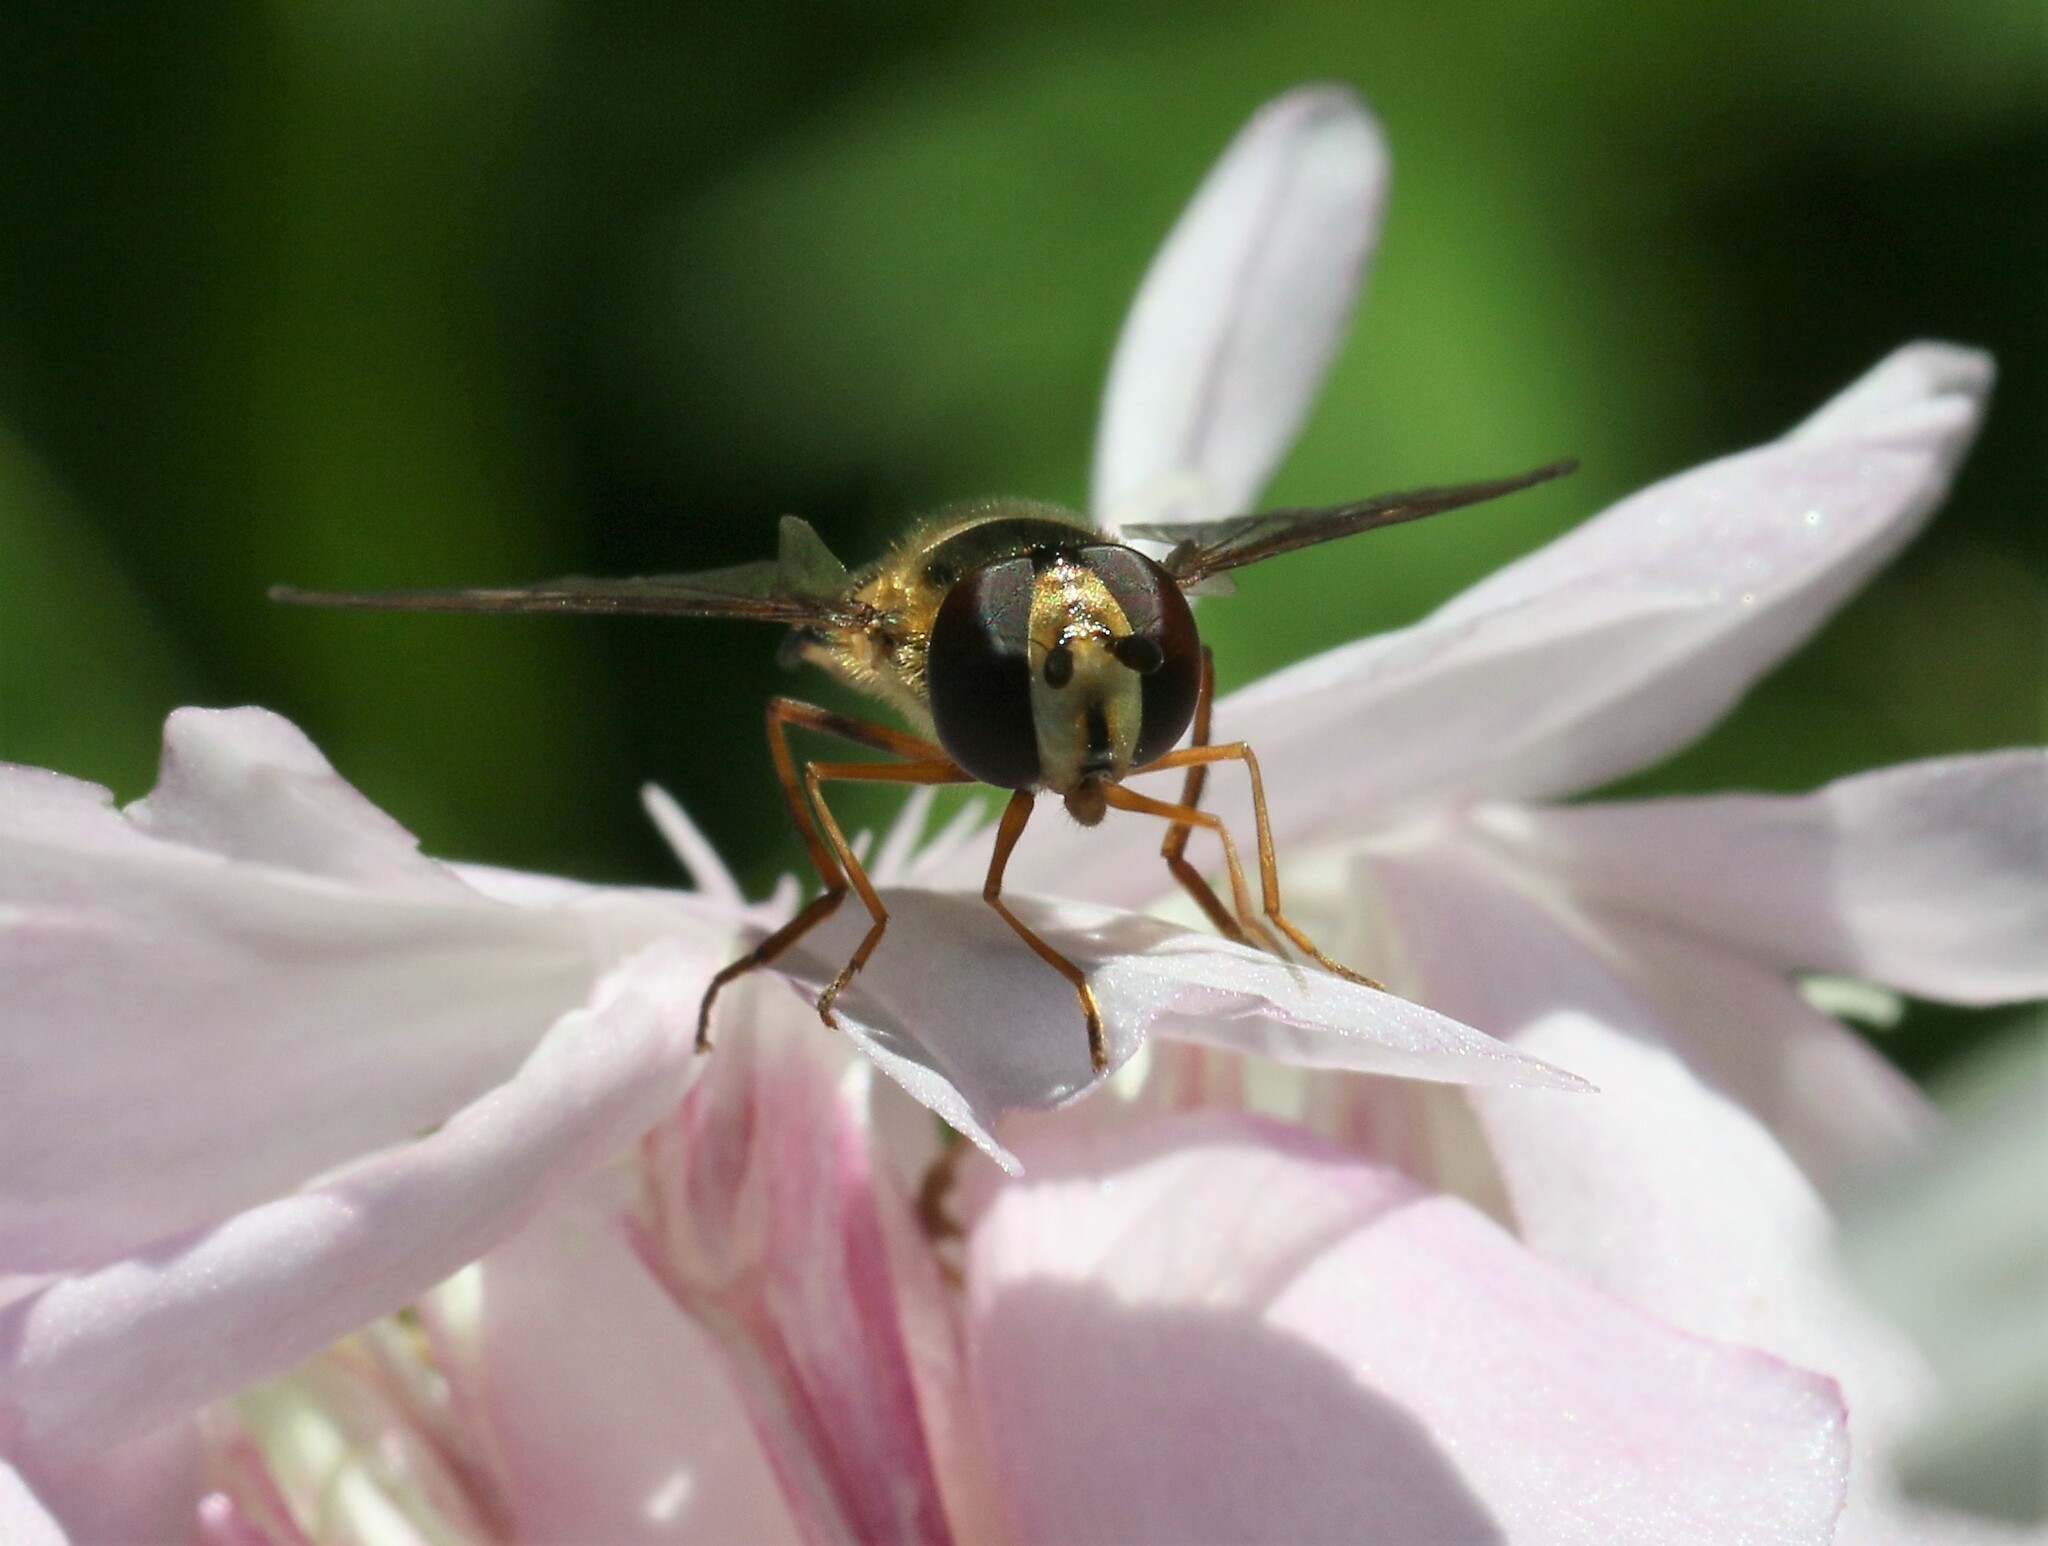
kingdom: Animalia
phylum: Arthropoda
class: Insecta
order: Diptera
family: Syrphidae
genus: Eupeodes
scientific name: Eupeodes
